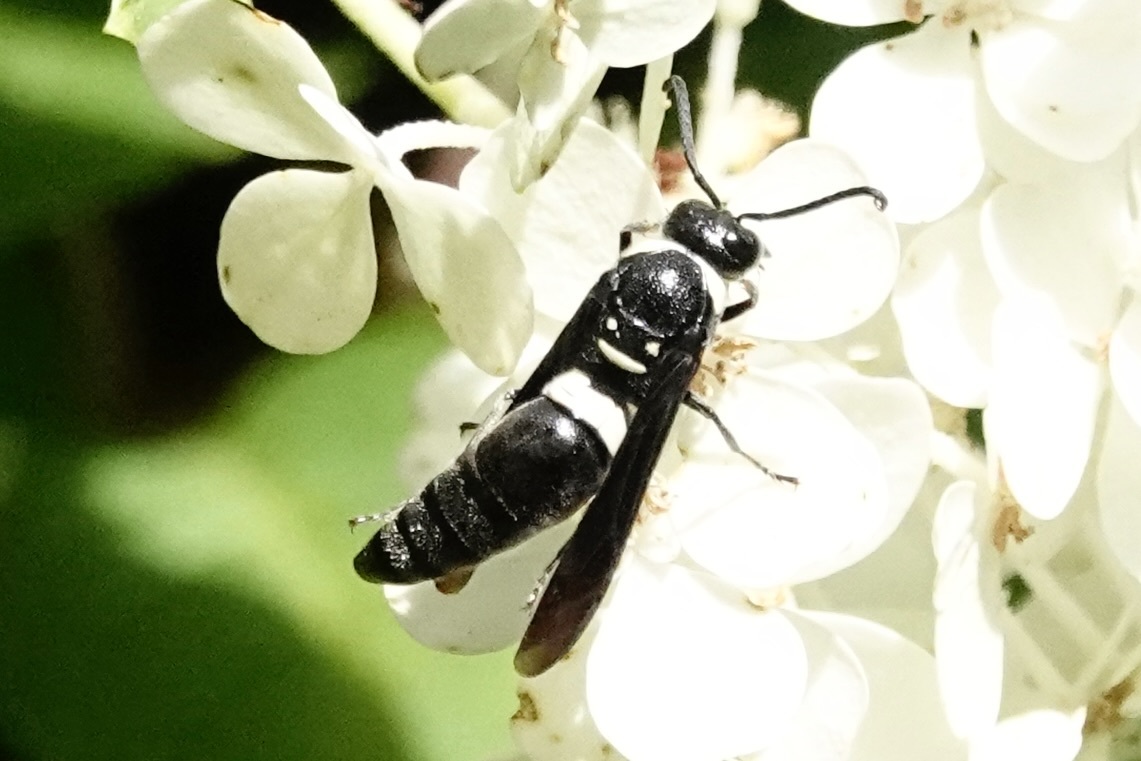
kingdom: Animalia
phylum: Arthropoda
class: Insecta
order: Hymenoptera
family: Eumenidae
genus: Monobia
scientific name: Monobia quadridens
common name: Four-toothed mason wasp
